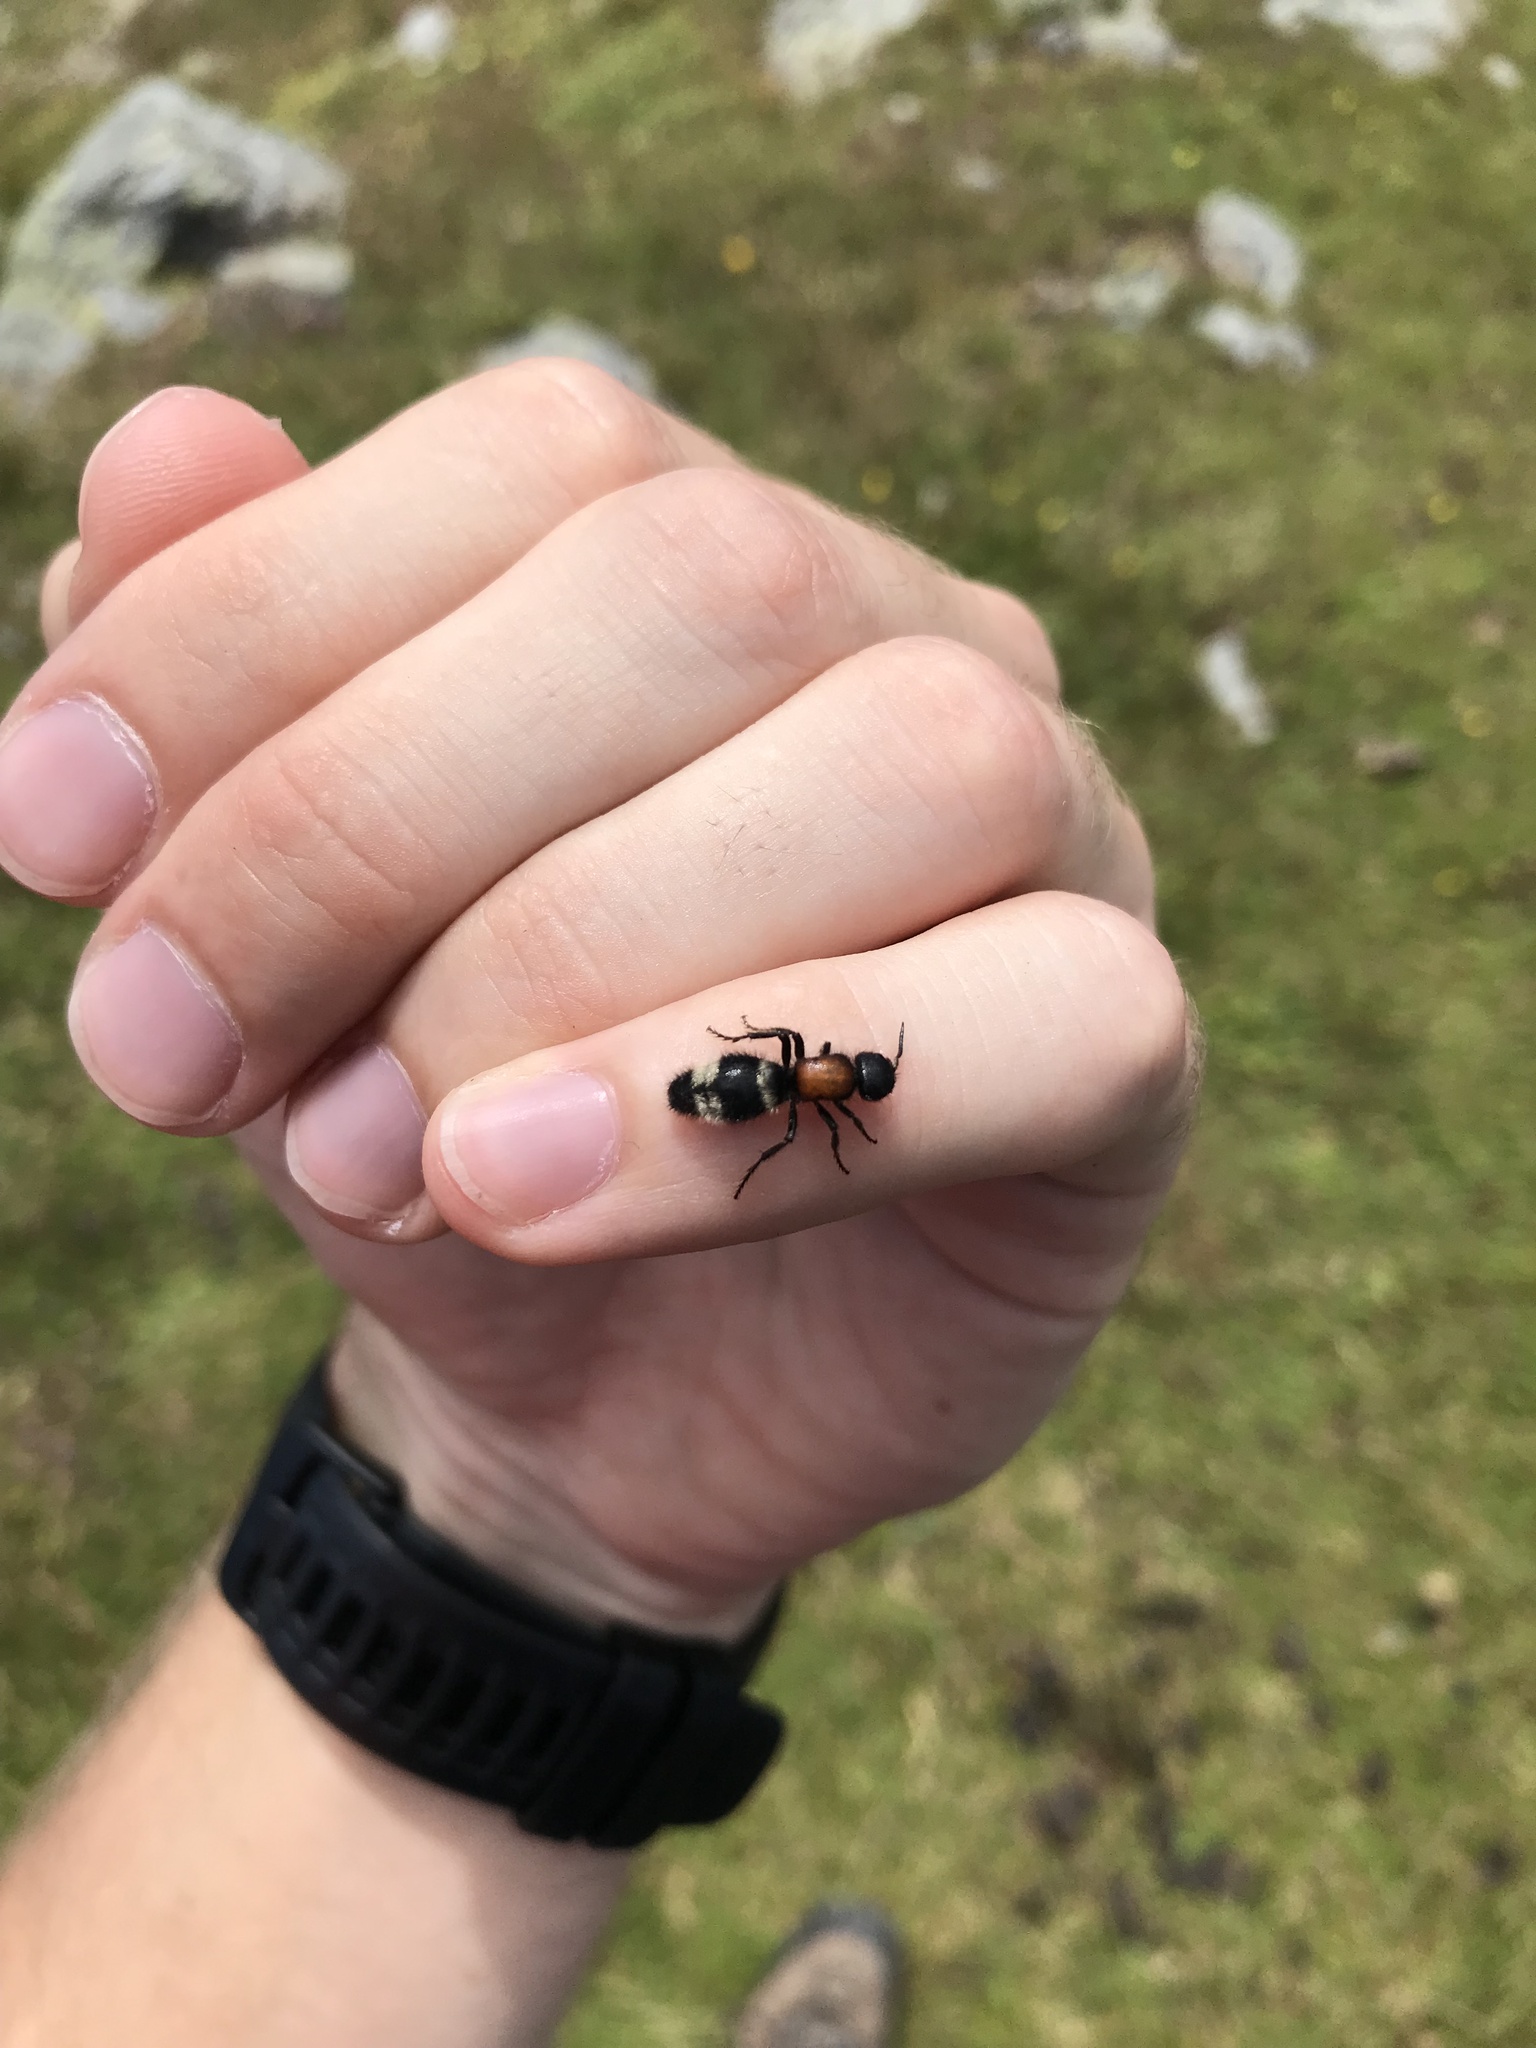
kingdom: Animalia
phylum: Arthropoda
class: Insecta
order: Hymenoptera
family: Mutillidae
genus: Mutilla
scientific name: Mutilla europaea
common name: Large velvet ant
